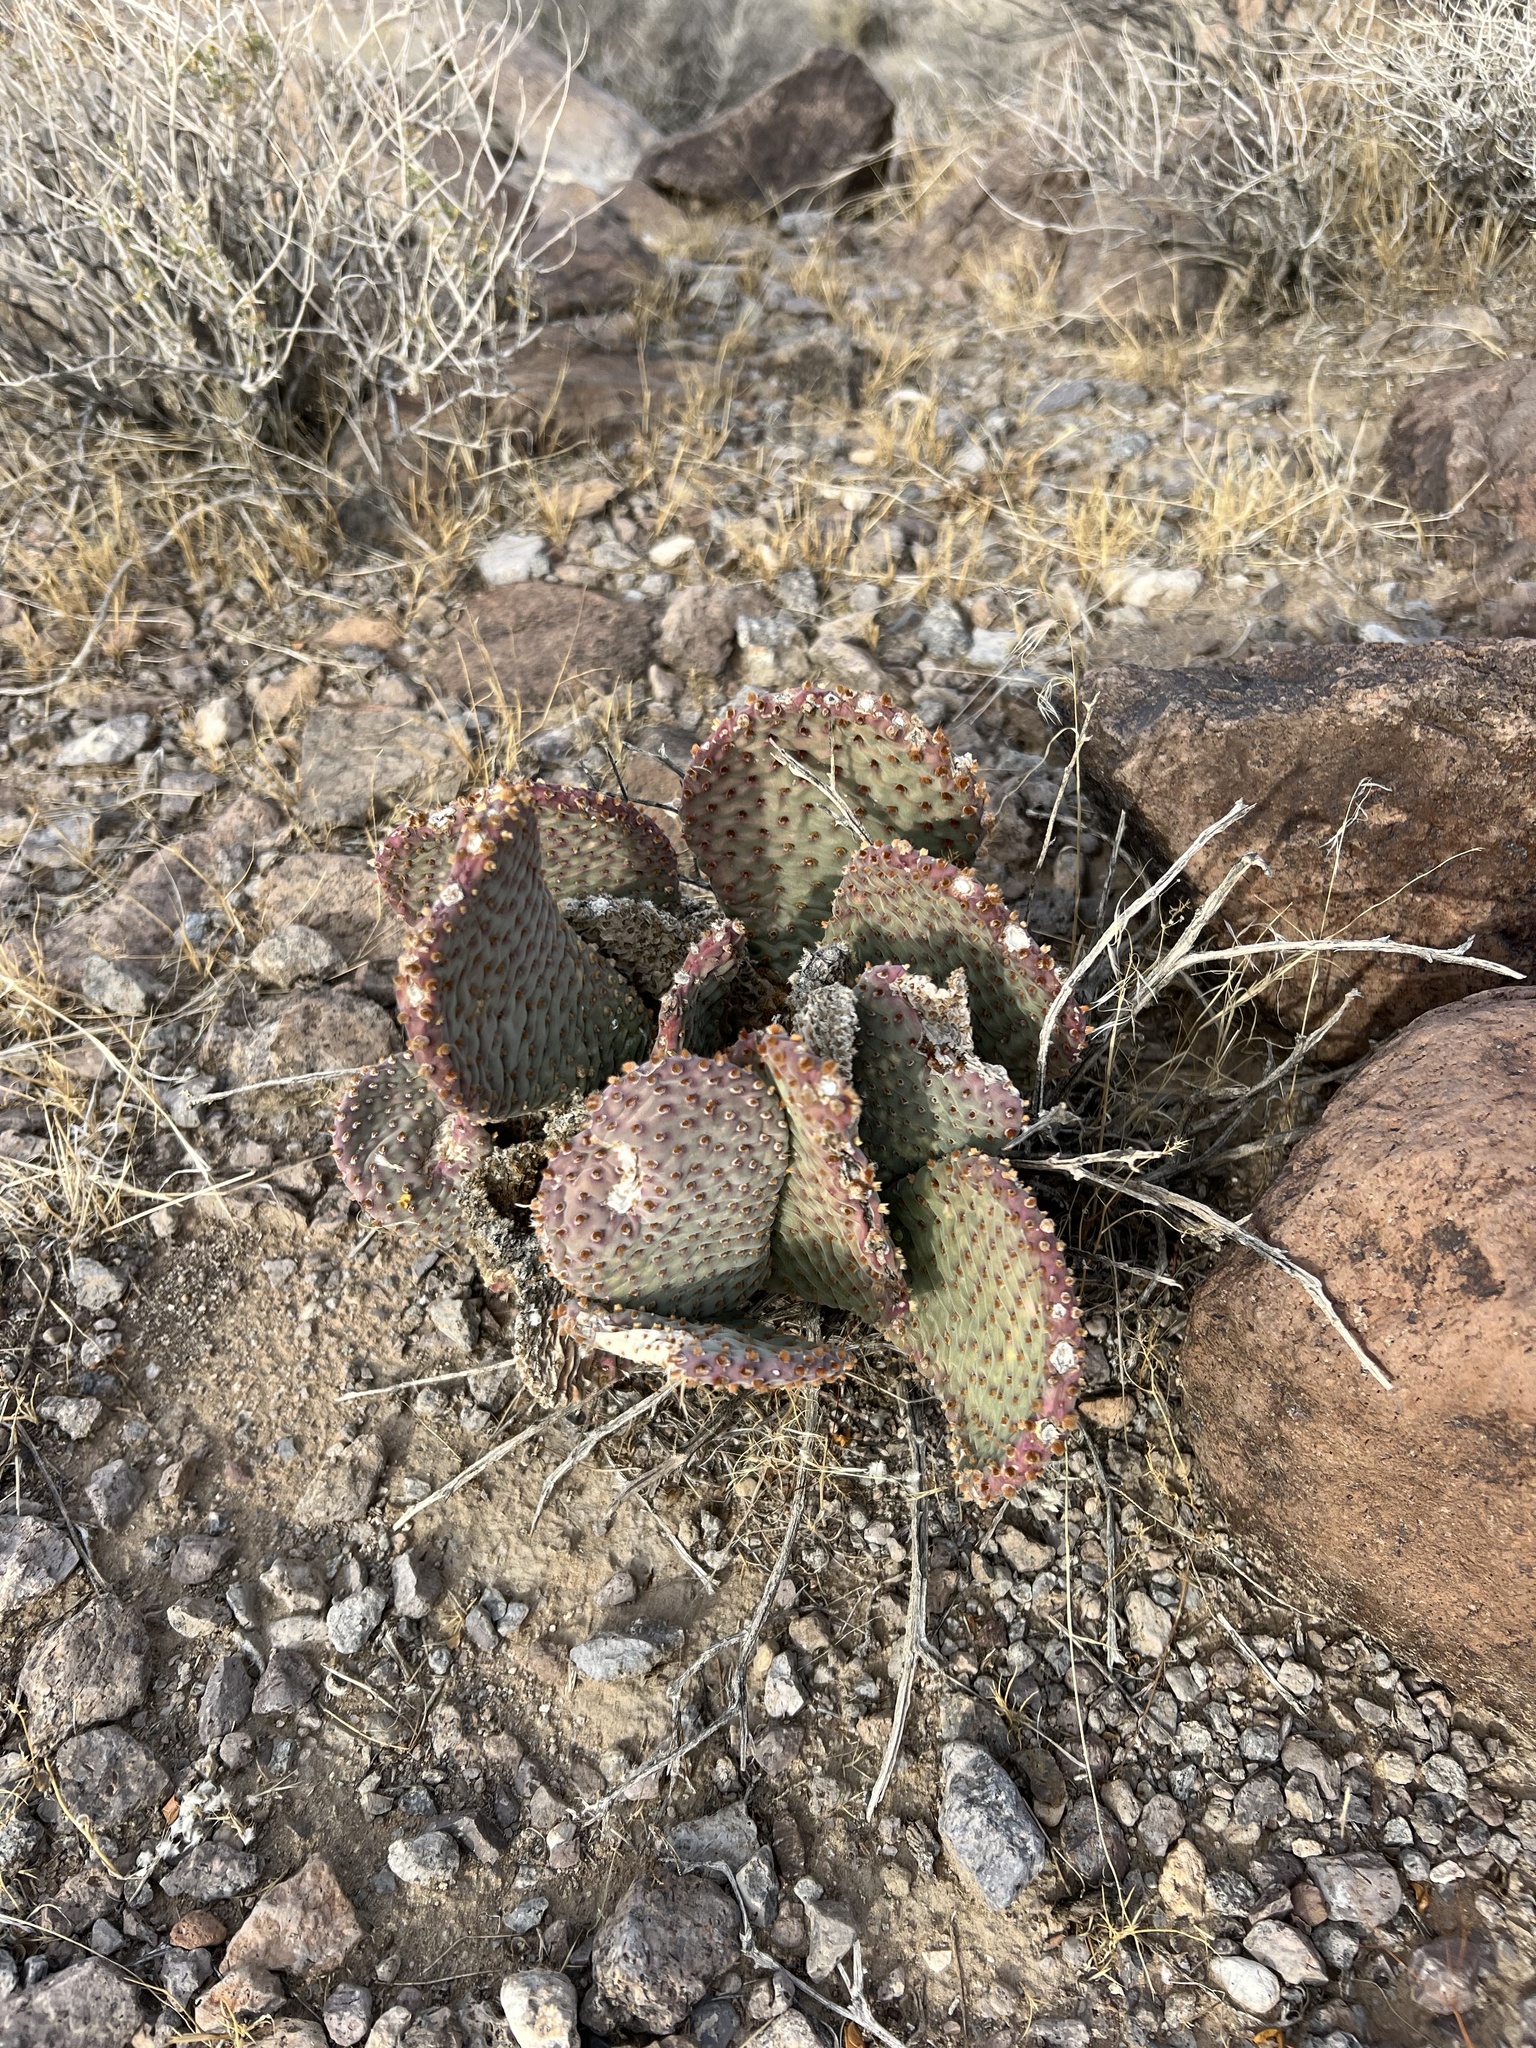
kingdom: Plantae
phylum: Tracheophyta
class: Magnoliopsida
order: Caryophyllales
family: Cactaceae
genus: Opuntia
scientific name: Opuntia basilaris
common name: Beavertail prickly-pear
